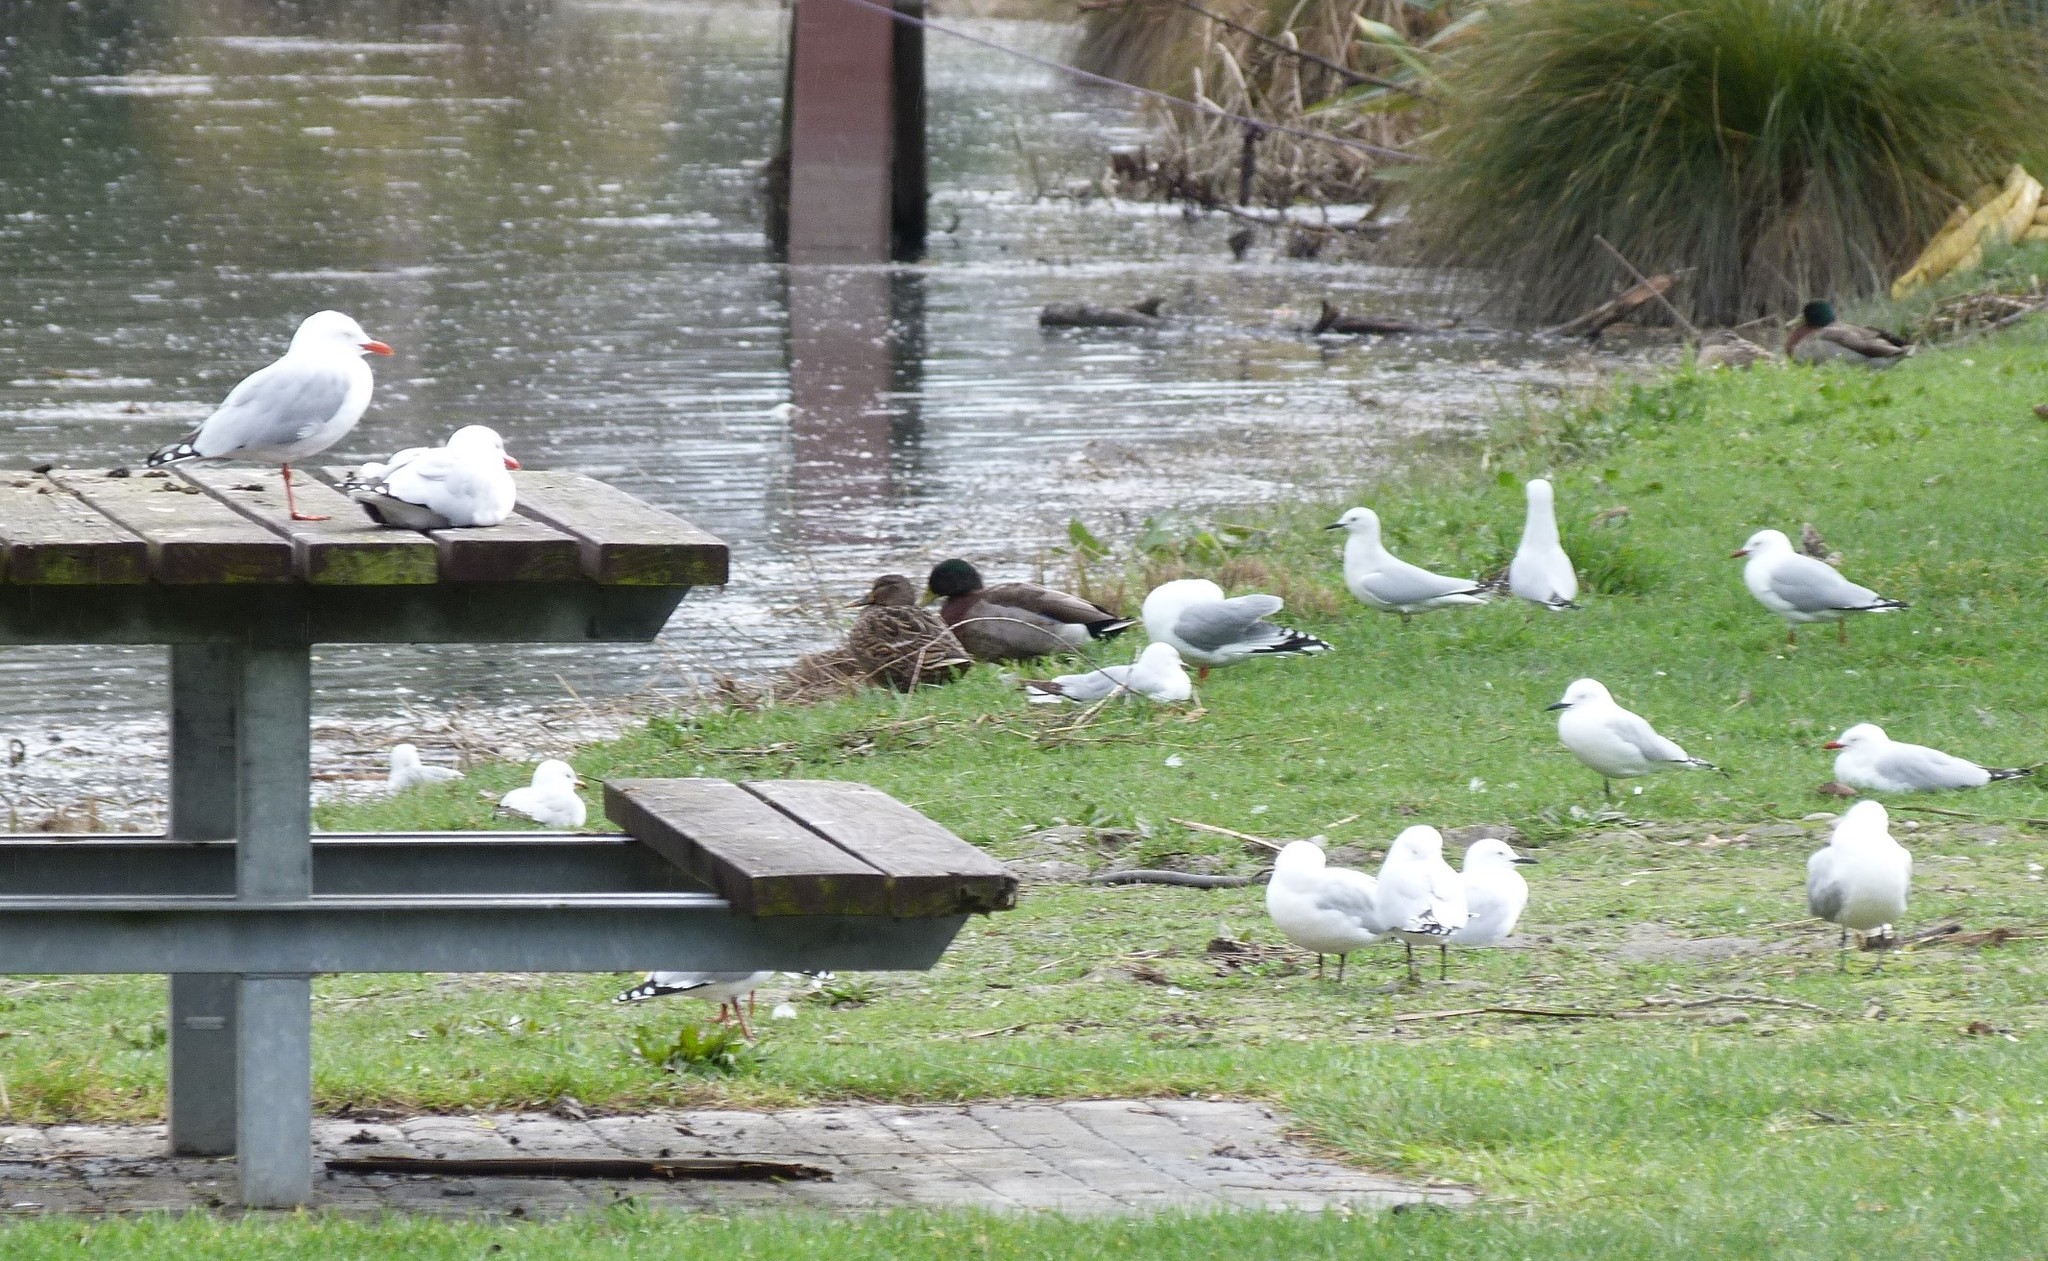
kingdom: Animalia
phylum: Chordata
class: Aves
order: Charadriiformes
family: Laridae
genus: Chroicocephalus
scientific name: Chroicocephalus novaehollandiae
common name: Silver gull
